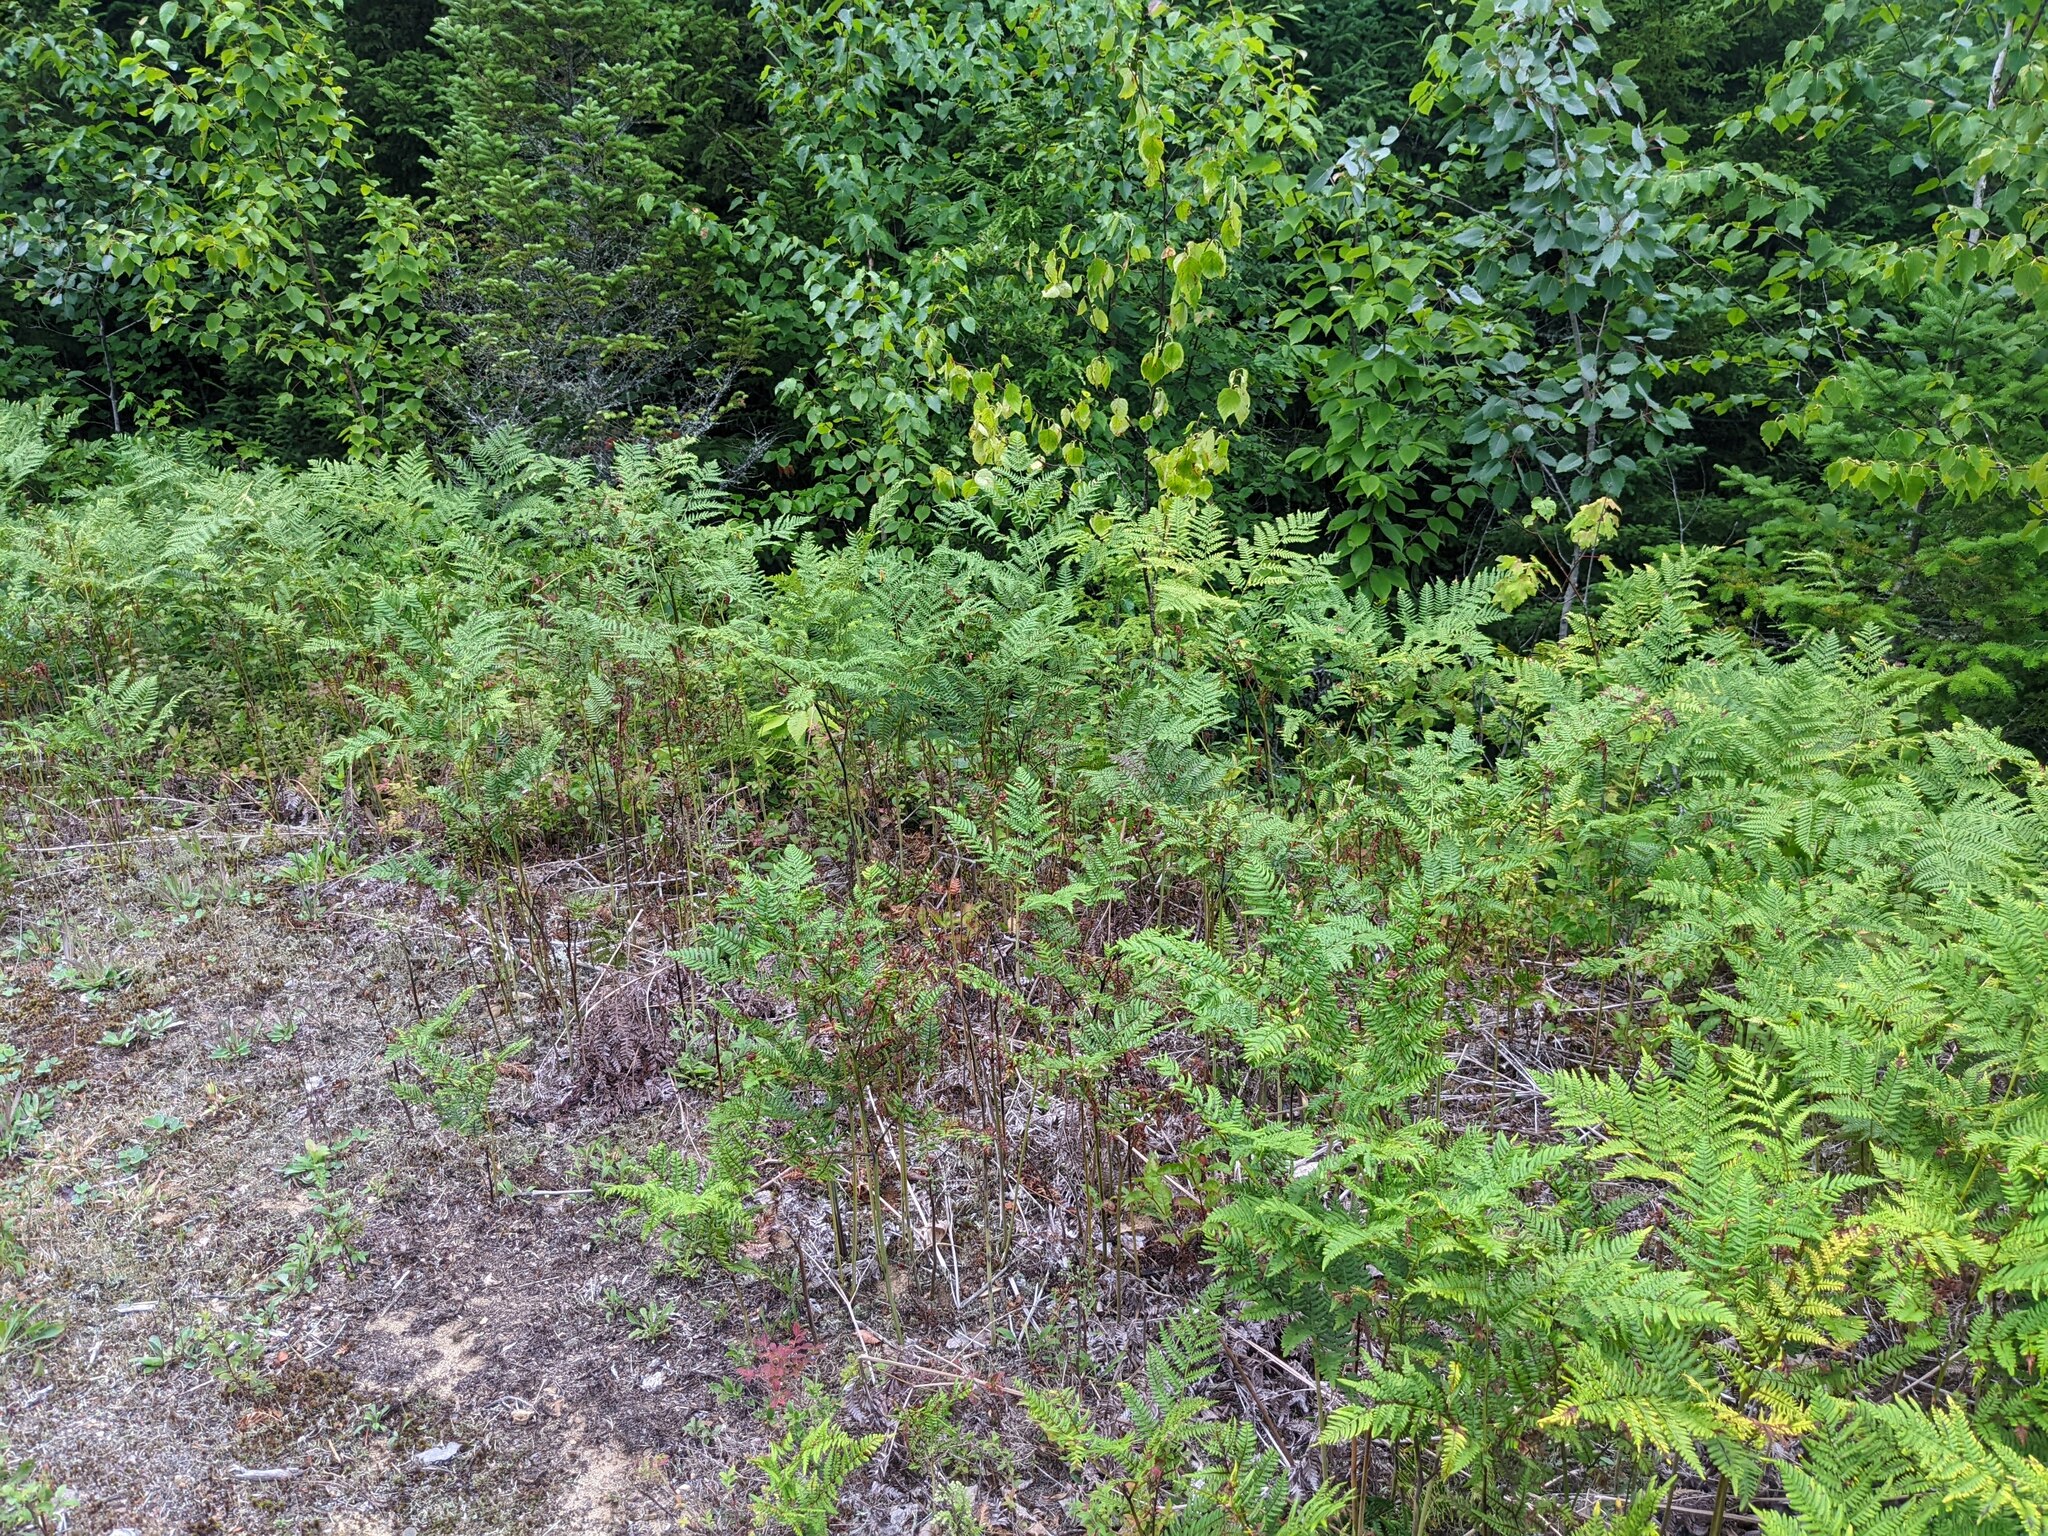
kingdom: Plantae
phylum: Tracheophyta
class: Polypodiopsida
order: Polypodiales
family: Dennstaedtiaceae
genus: Pteridium
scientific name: Pteridium aquilinum
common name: Bracken
